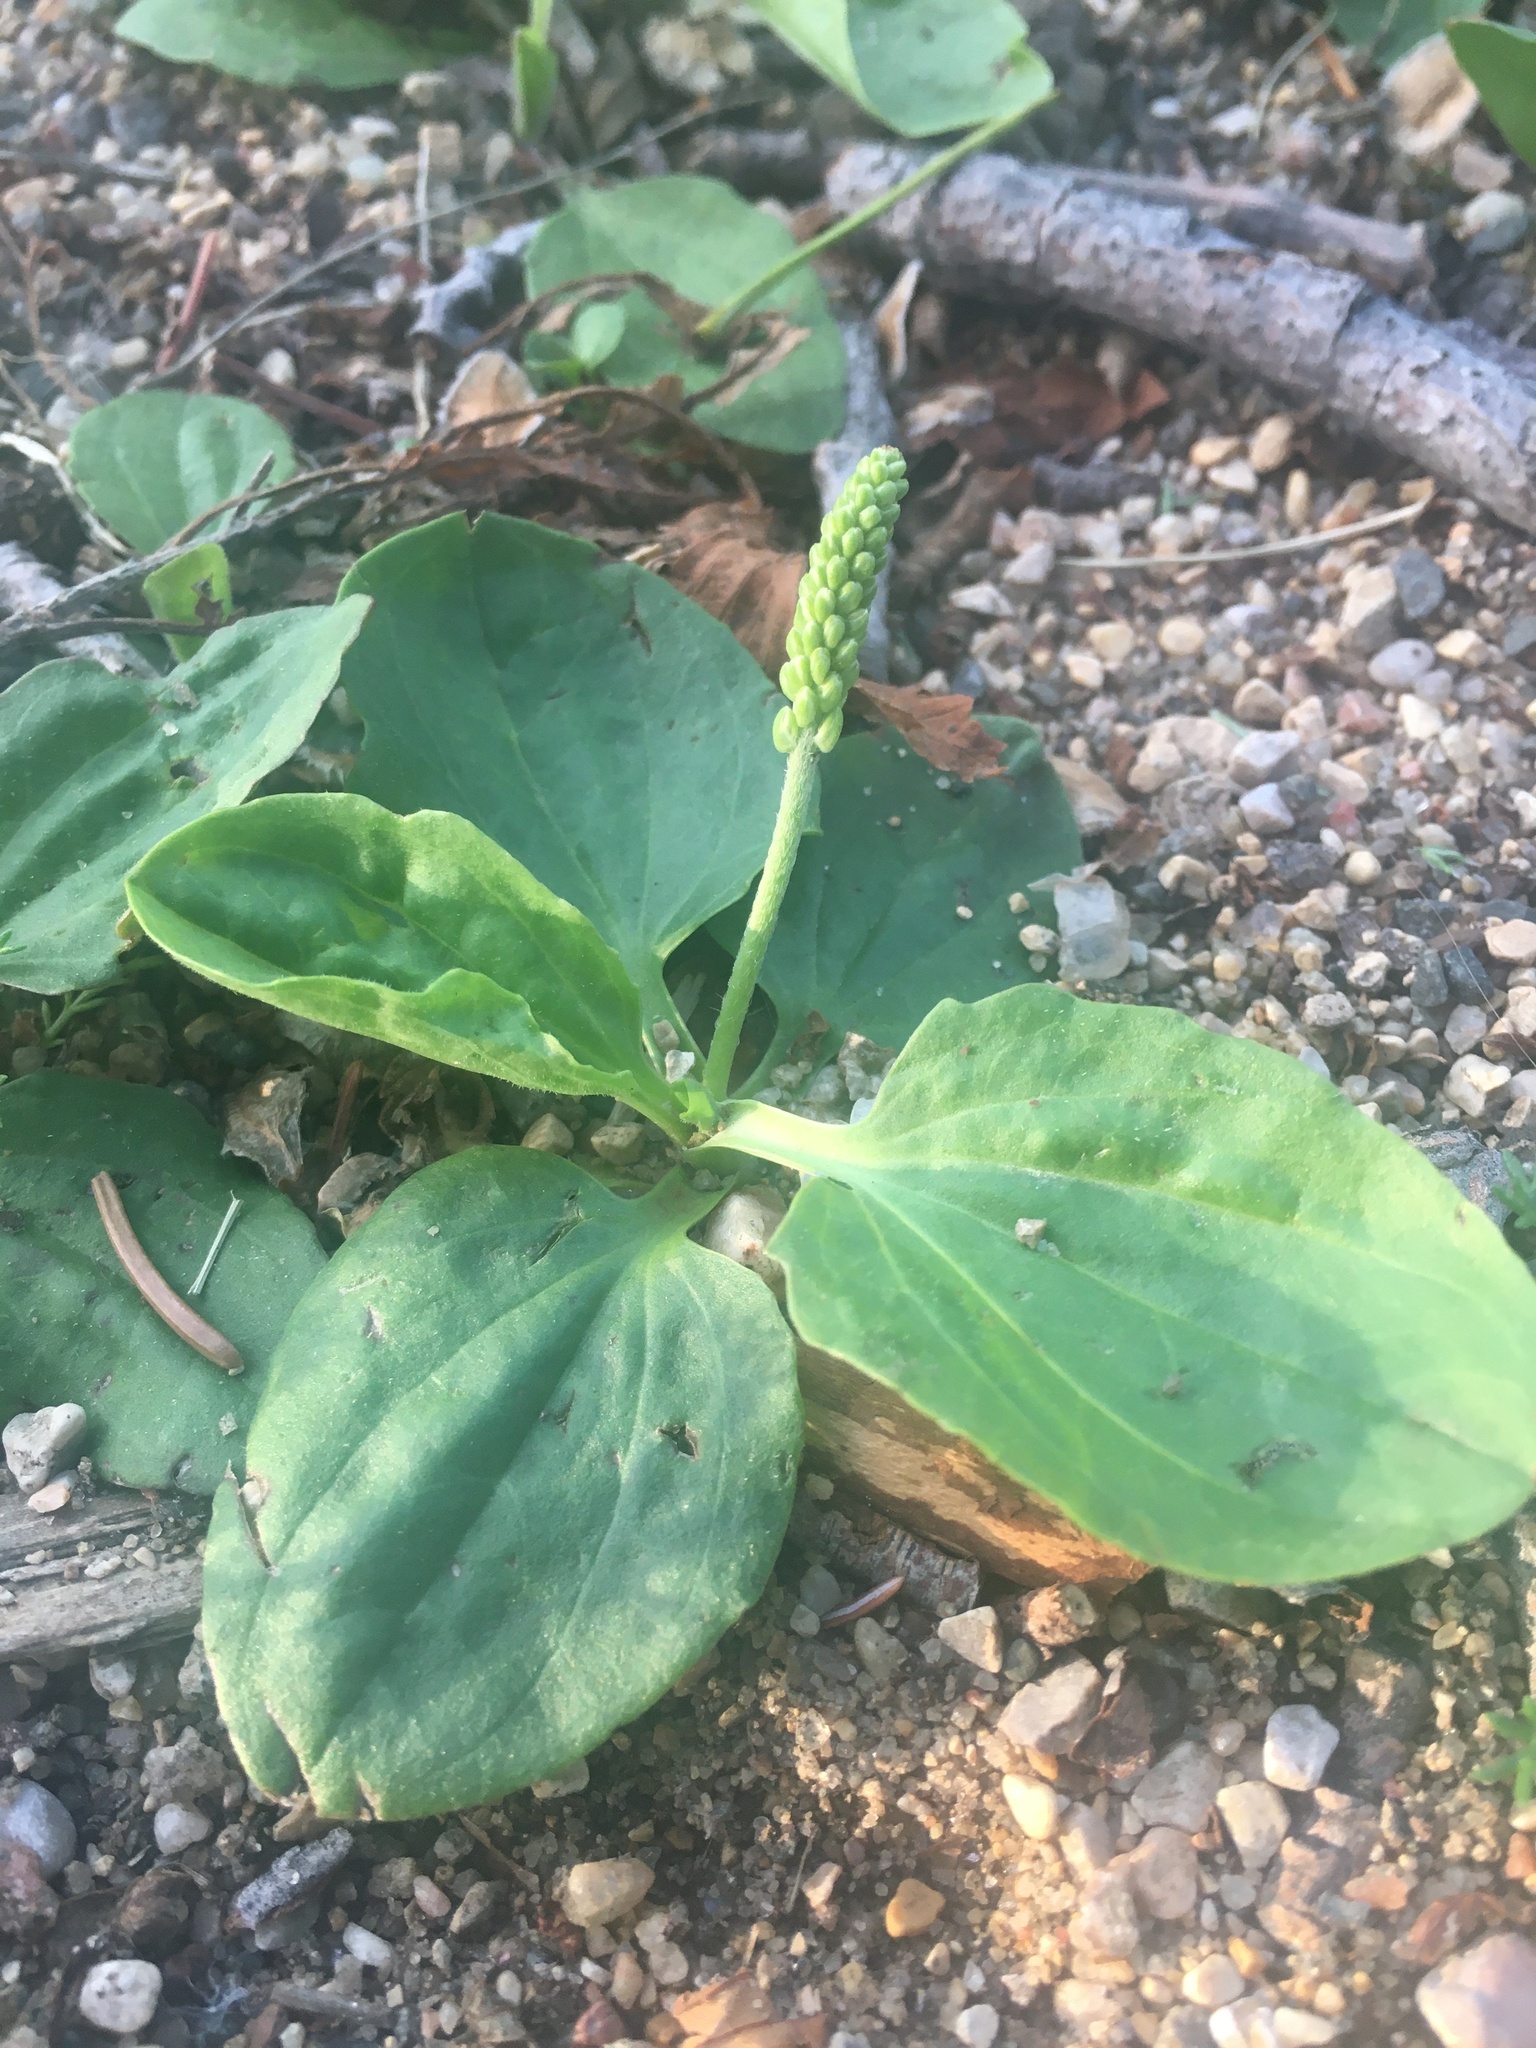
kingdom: Plantae
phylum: Tracheophyta
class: Magnoliopsida
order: Lamiales
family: Plantaginaceae
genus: Plantago
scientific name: Plantago major
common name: Common plantain
